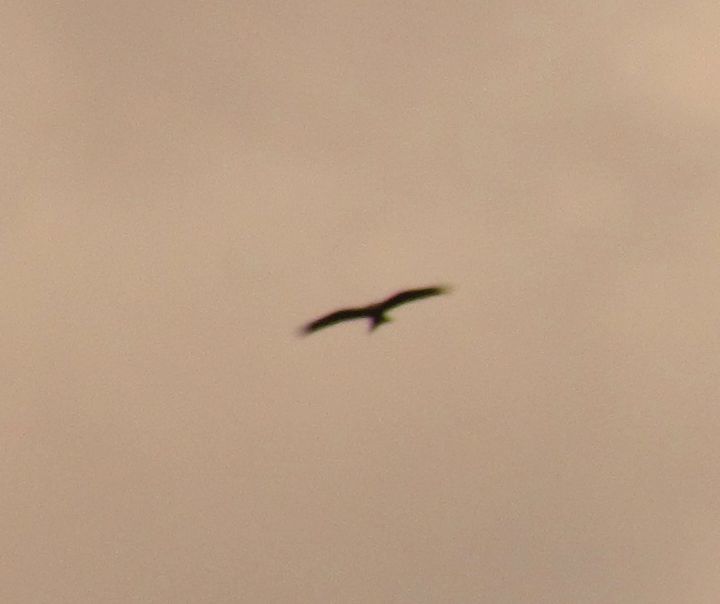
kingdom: Animalia
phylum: Chordata
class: Aves
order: Accipitriformes
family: Accipitridae
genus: Milvus
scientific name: Milvus milvus
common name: Red kite
